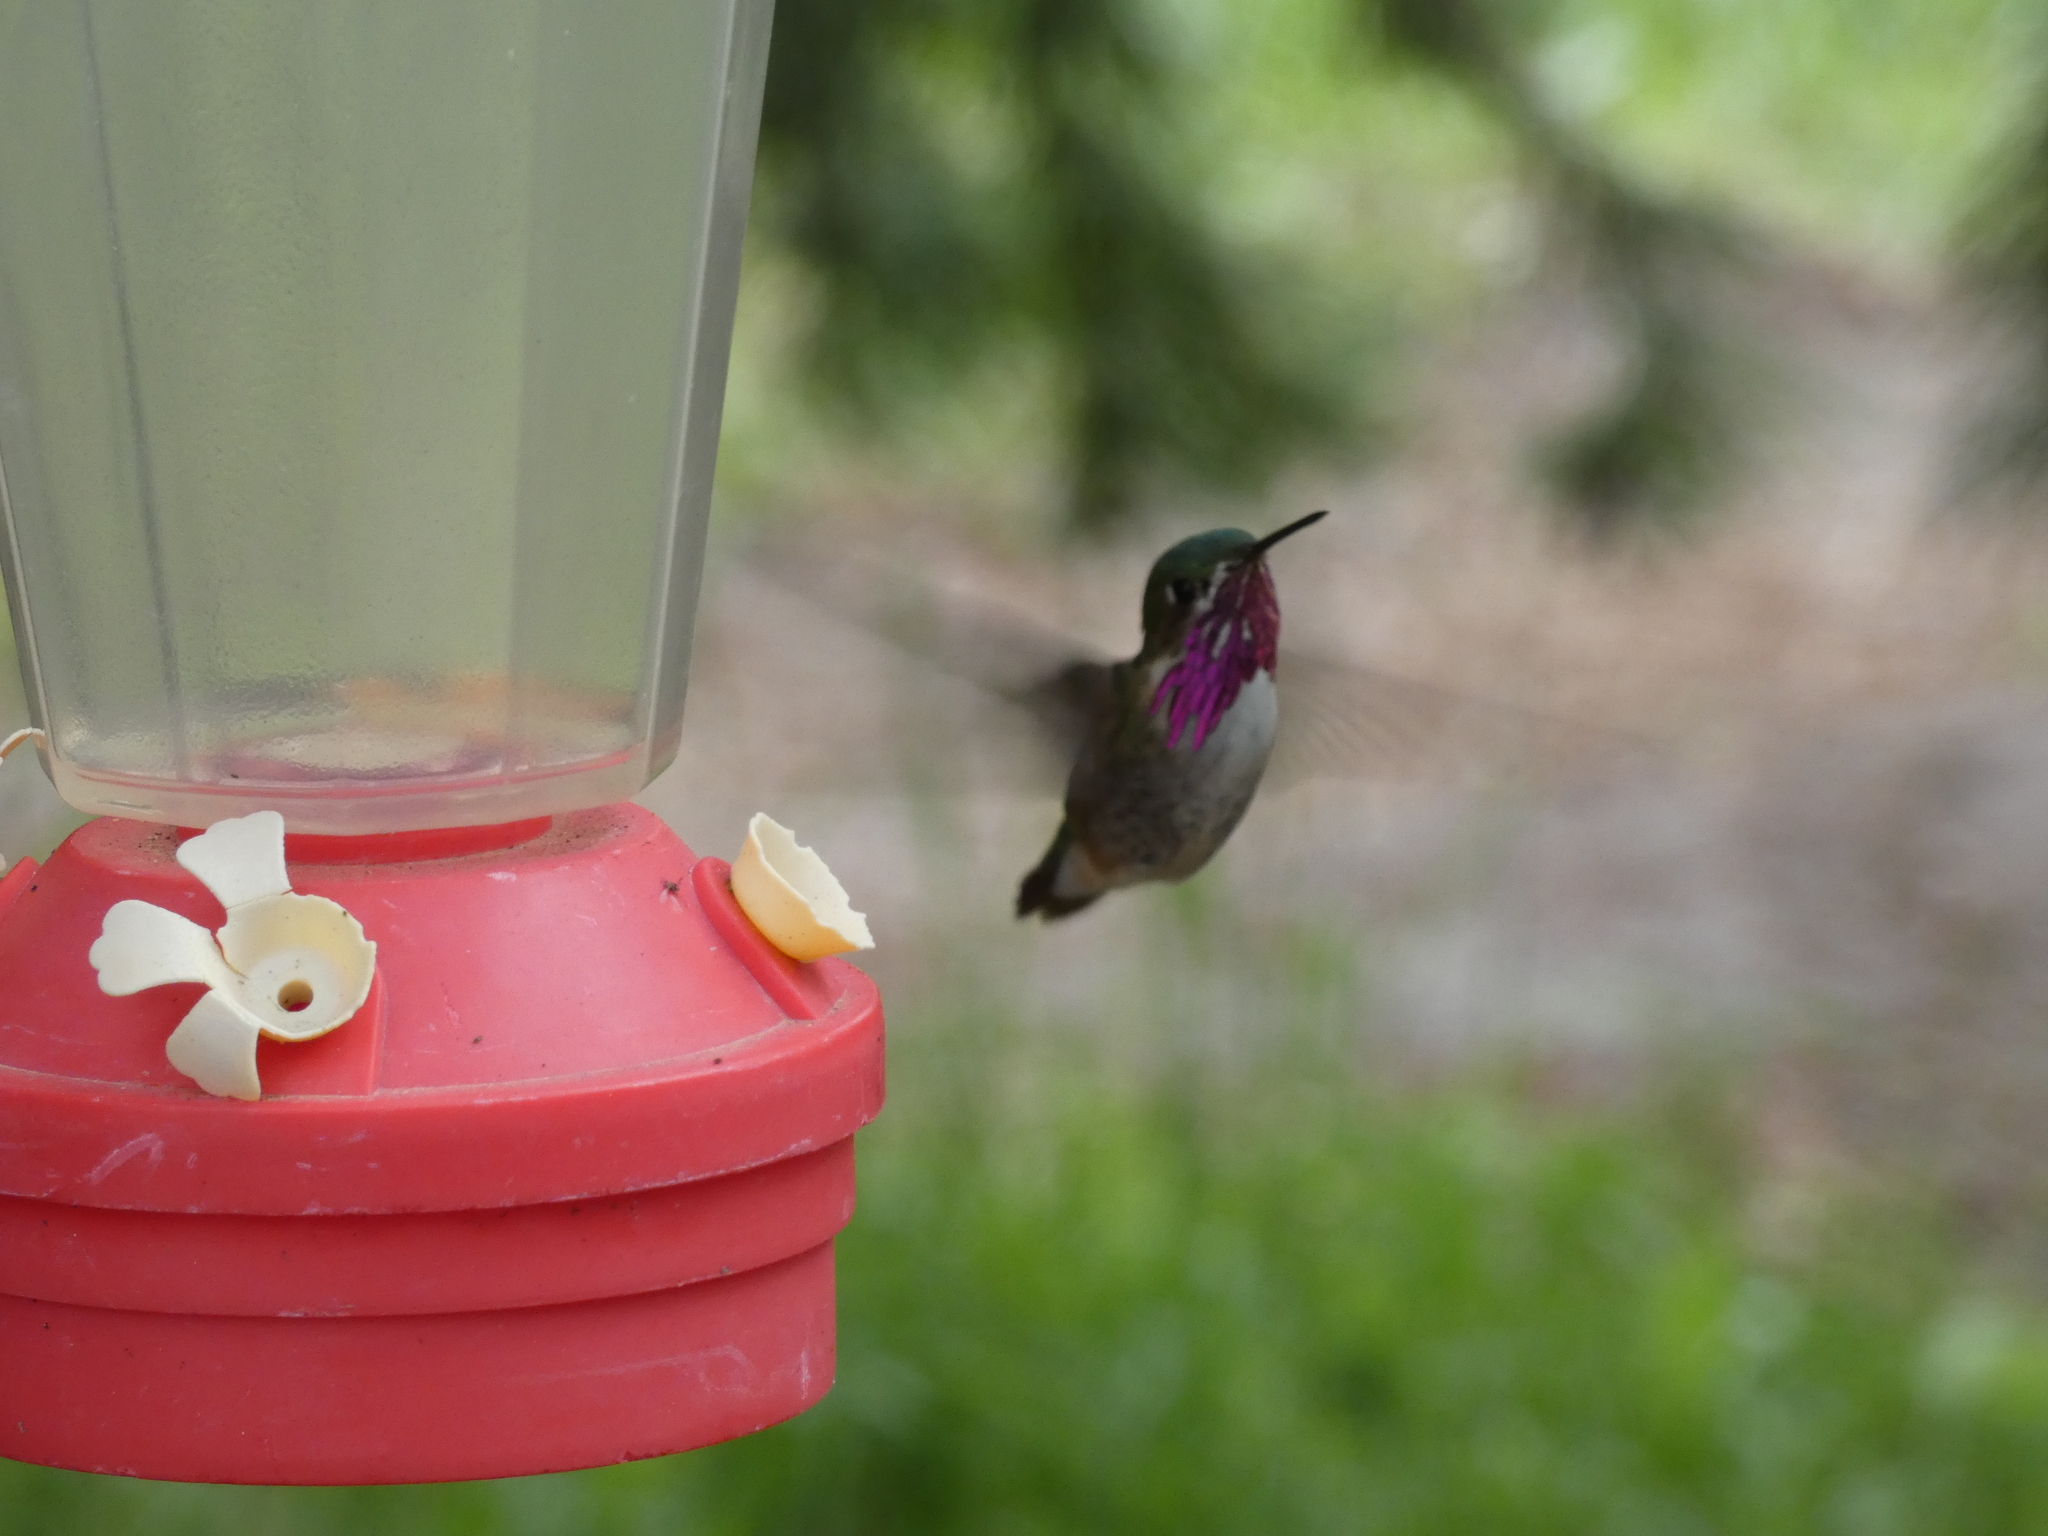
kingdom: Animalia
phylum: Chordata
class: Aves
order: Apodiformes
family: Trochilidae
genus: Selasphorus
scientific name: Selasphorus calliope
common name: Calliope hummingbird
